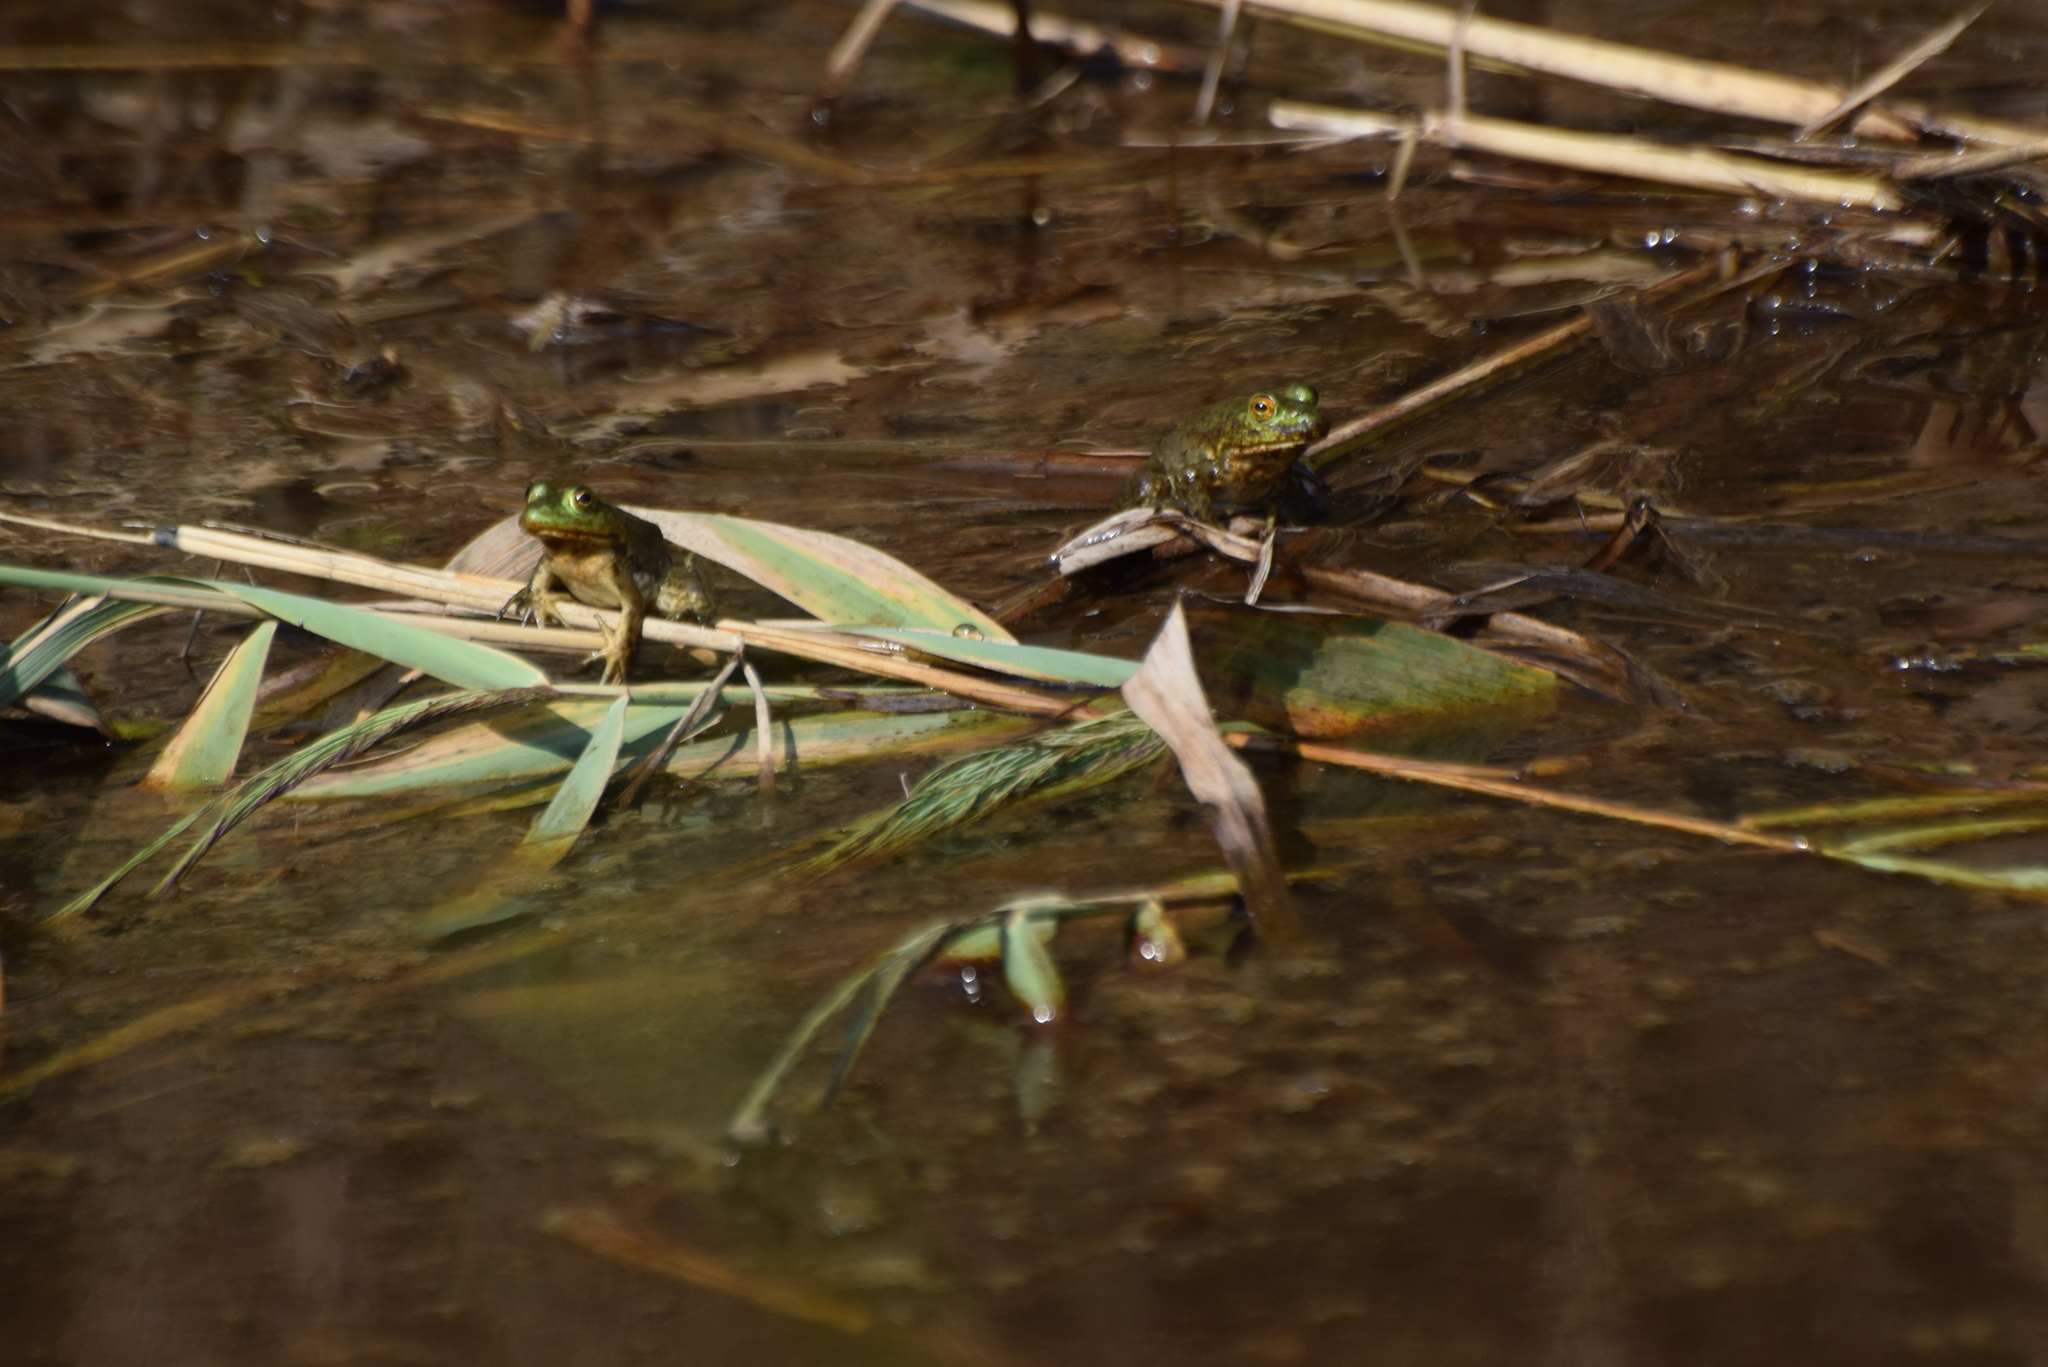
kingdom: Animalia
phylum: Chordata
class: Amphibia
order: Anura
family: Ranidae
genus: Lithobates
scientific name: Lithobates catesbeianus
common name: American bullfrog
